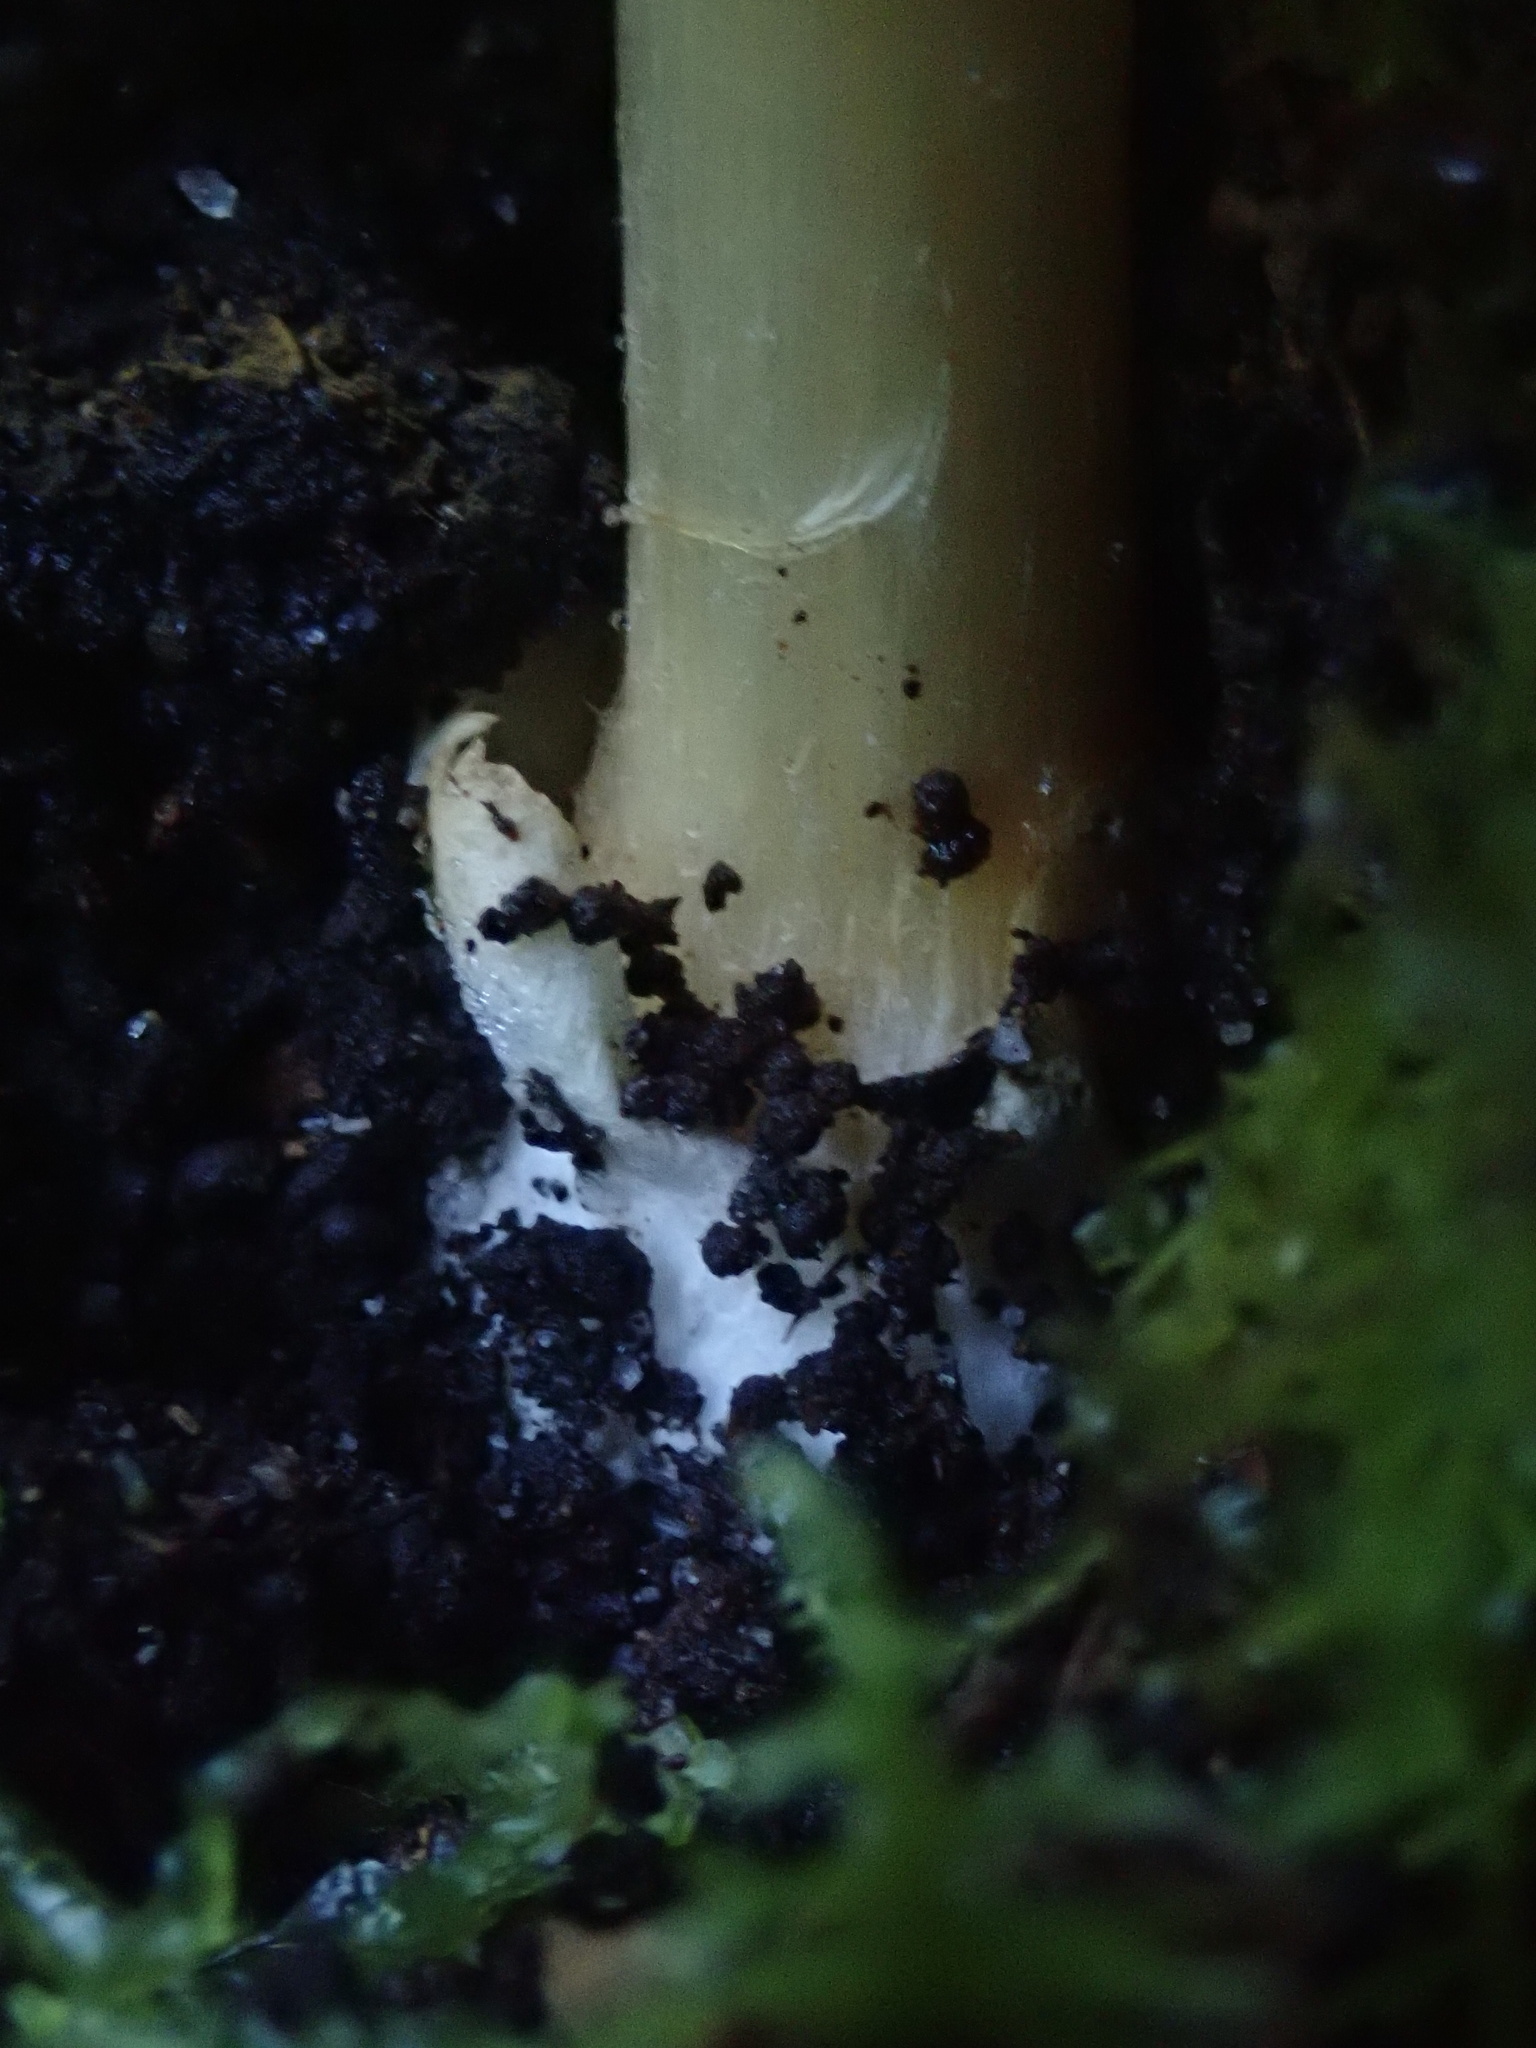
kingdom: Fungi
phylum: Basidiomycota
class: Agaricomycetes
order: Agaricales
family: Cortinariaceae
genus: Cortinarius
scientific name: Cortinarius phalarus
